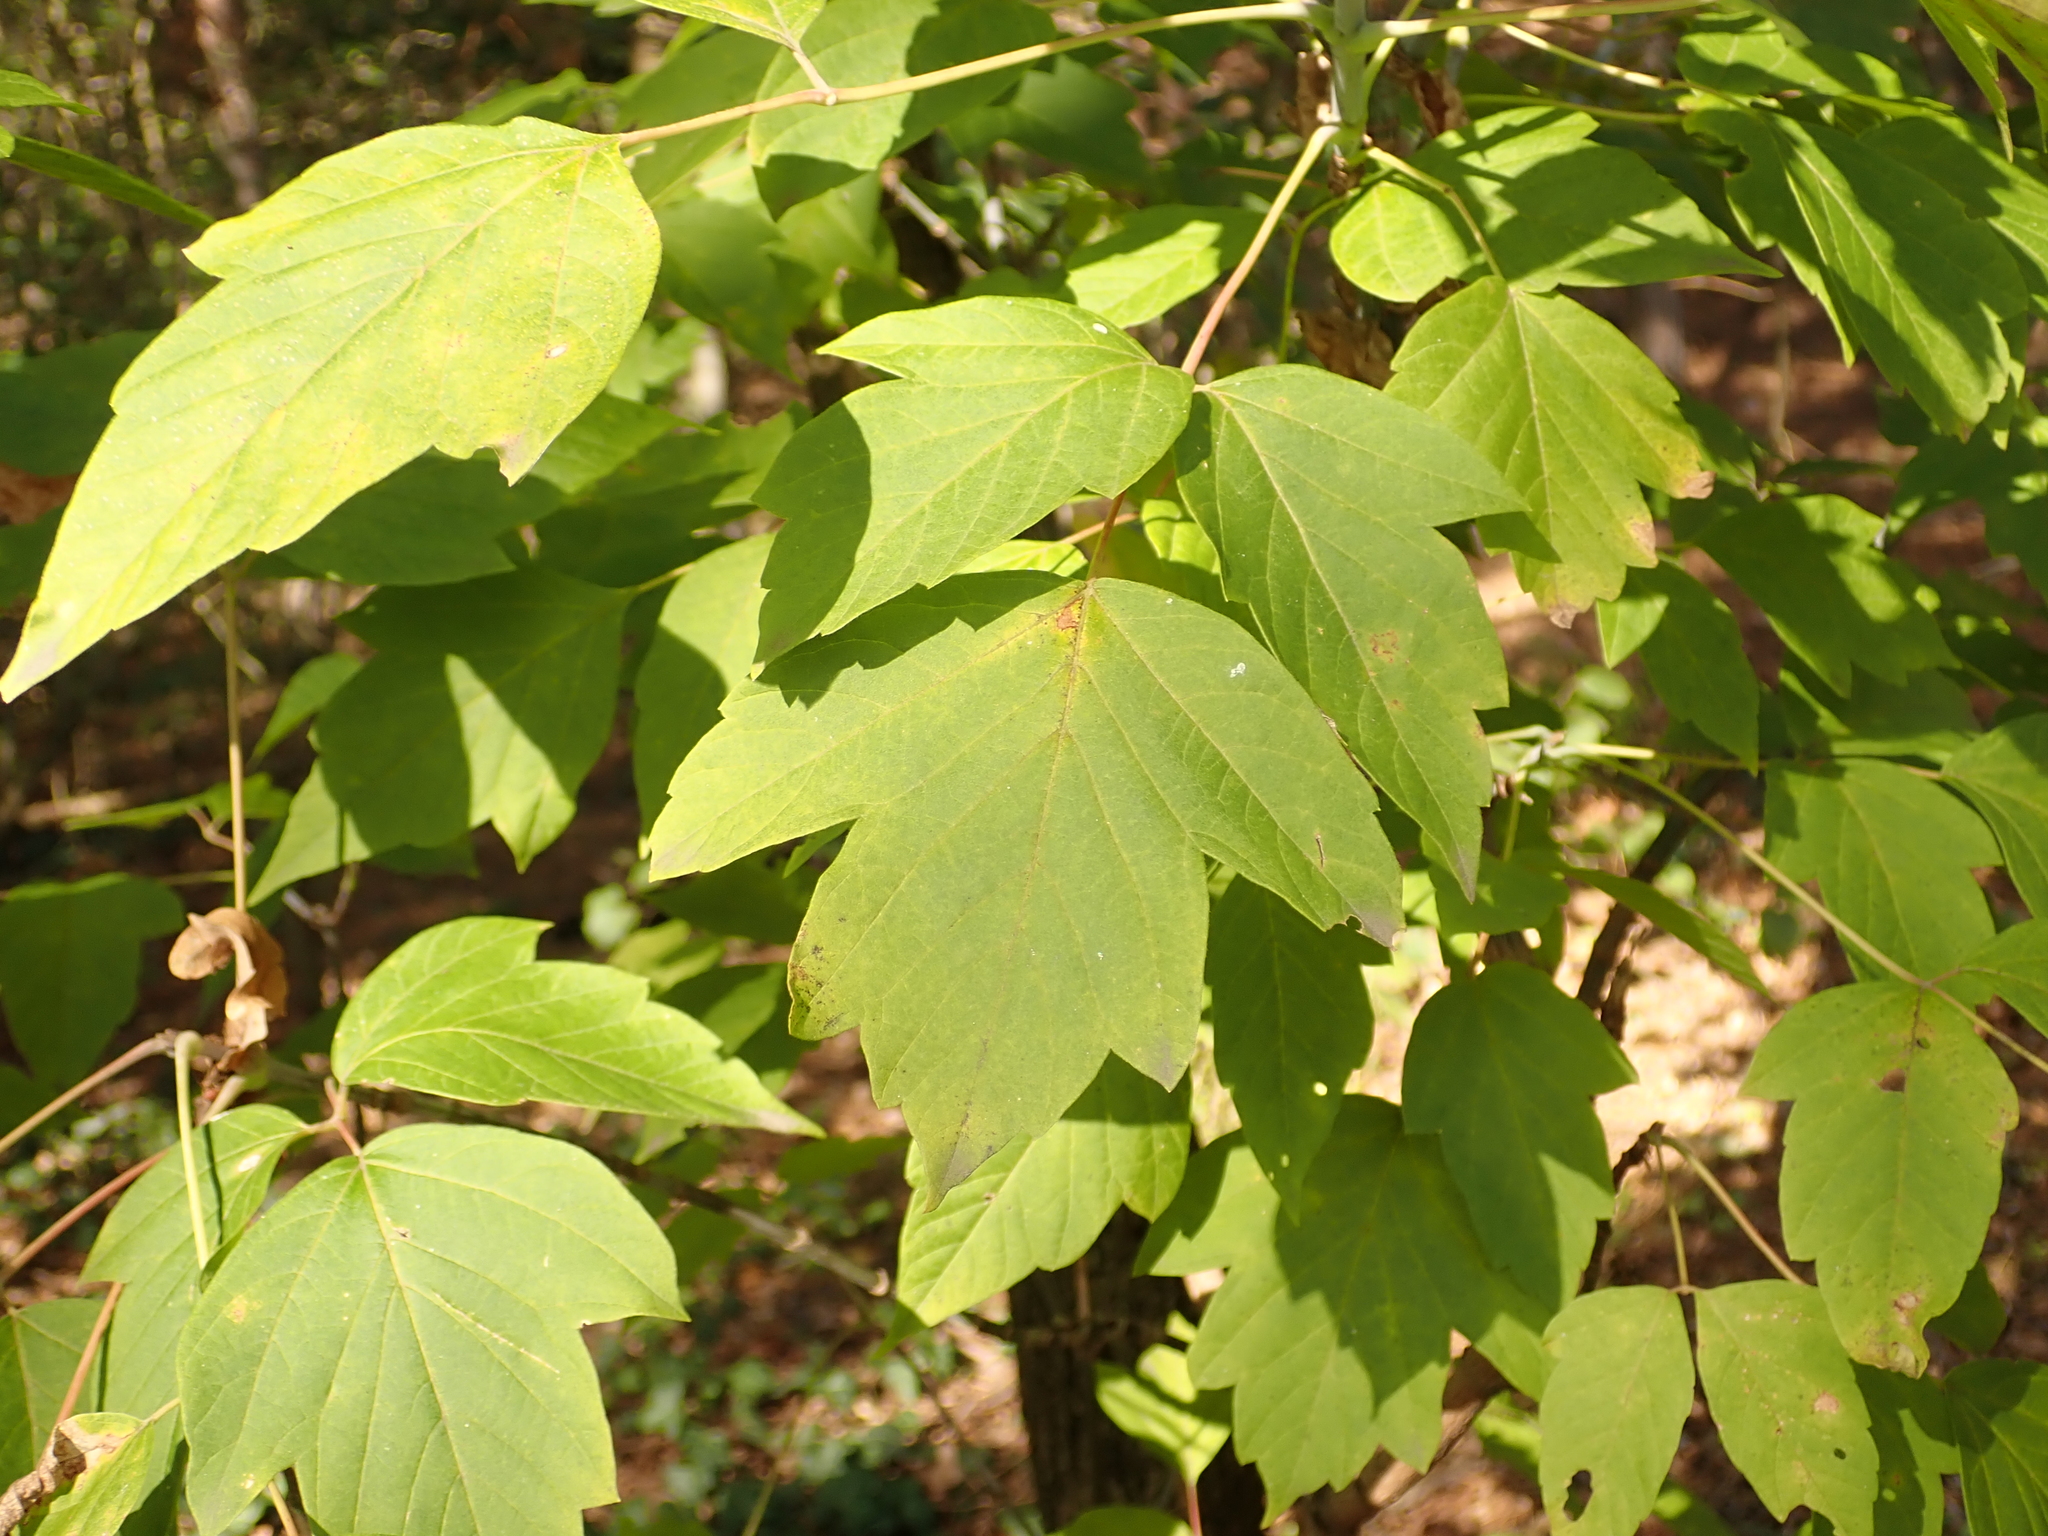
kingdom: Plantae
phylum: Tracheophyta
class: Magnoliopsida
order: Sapindales
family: Sapindaceae
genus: Acer
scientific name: Acer negundo
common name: Ashleaf maple
